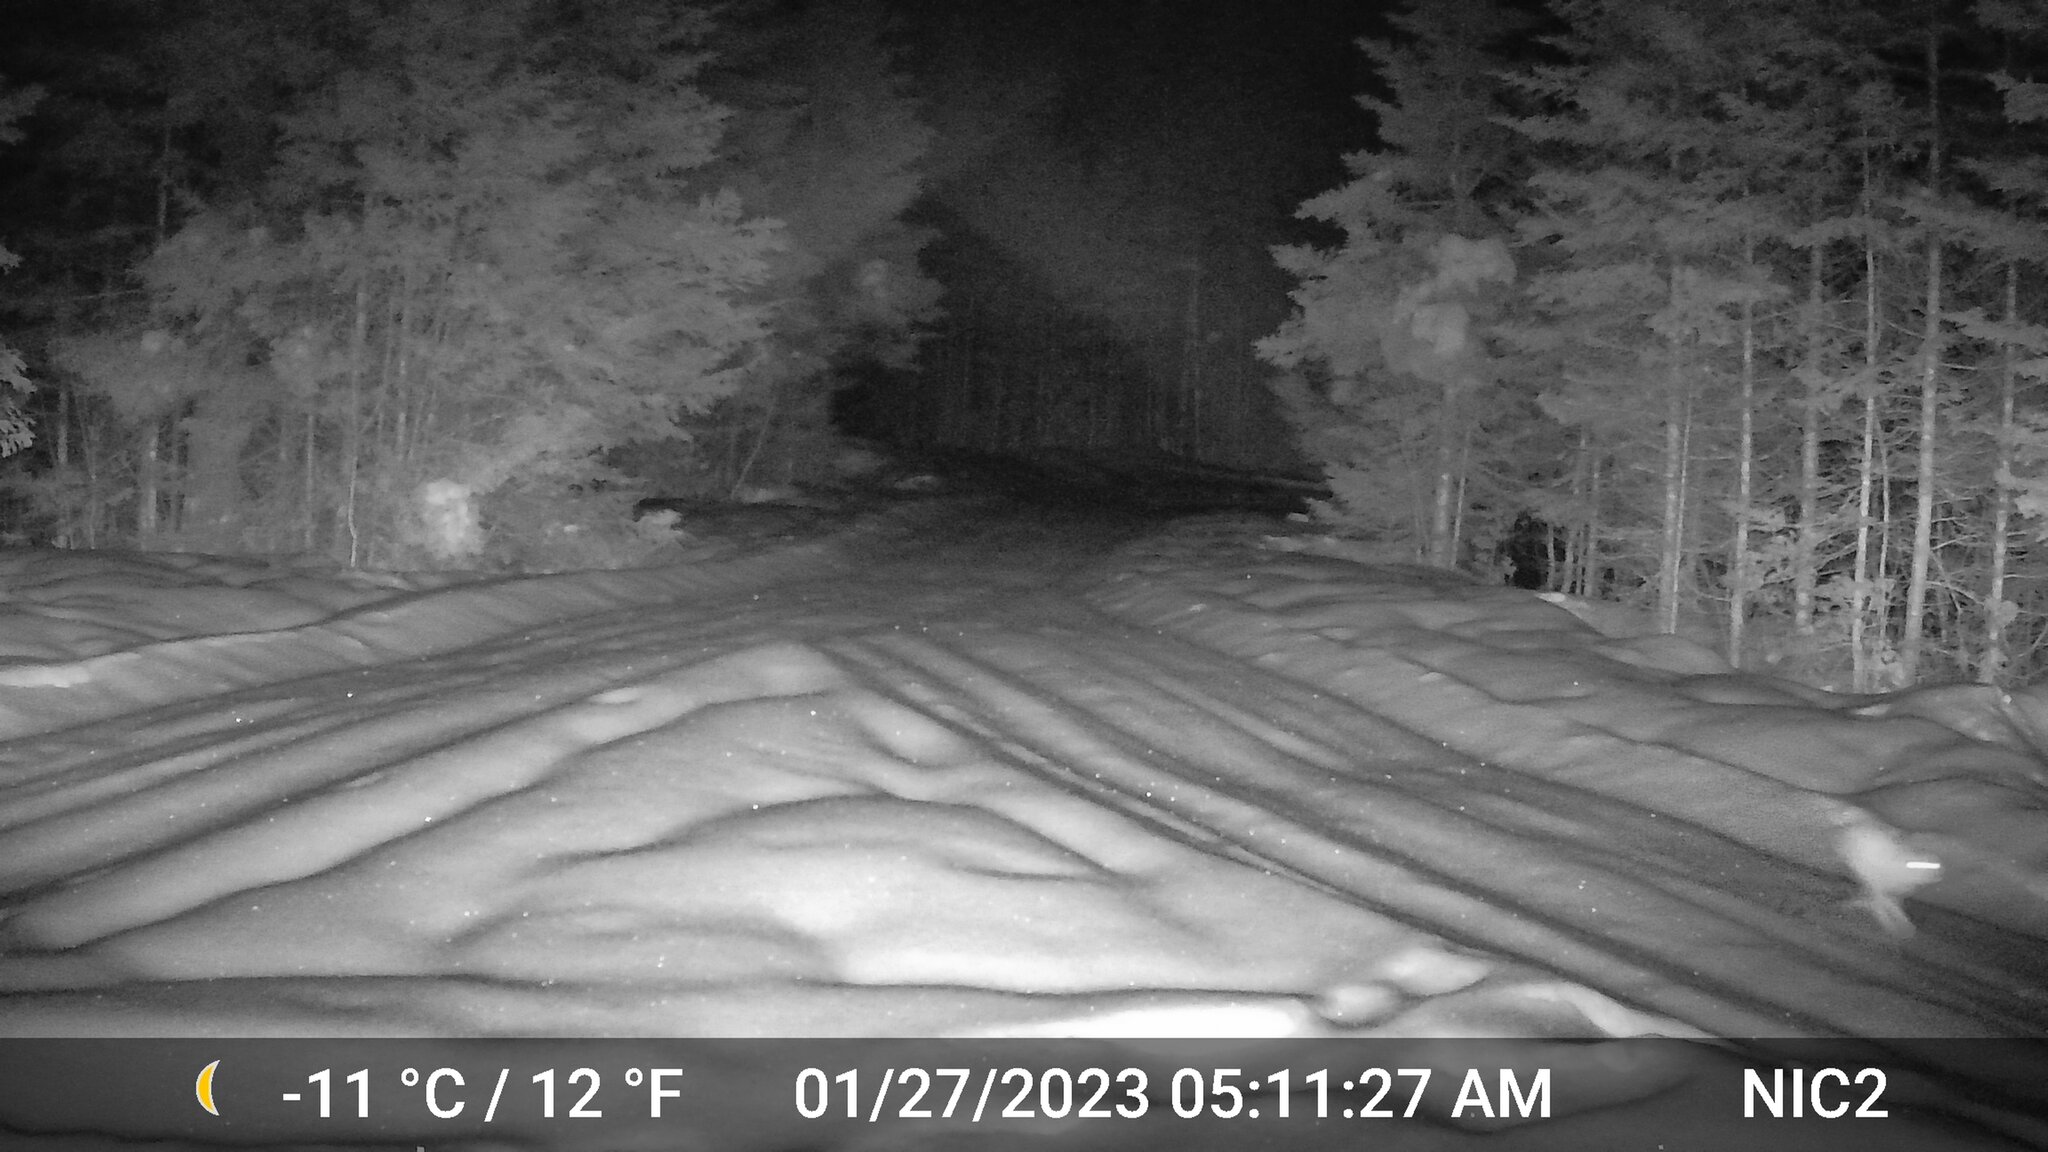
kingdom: Animalia
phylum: Chordata
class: Mammalia
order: Lagomorpha
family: Leporidae
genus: Lepus
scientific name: Lepus americanus
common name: Snowshoe hare
